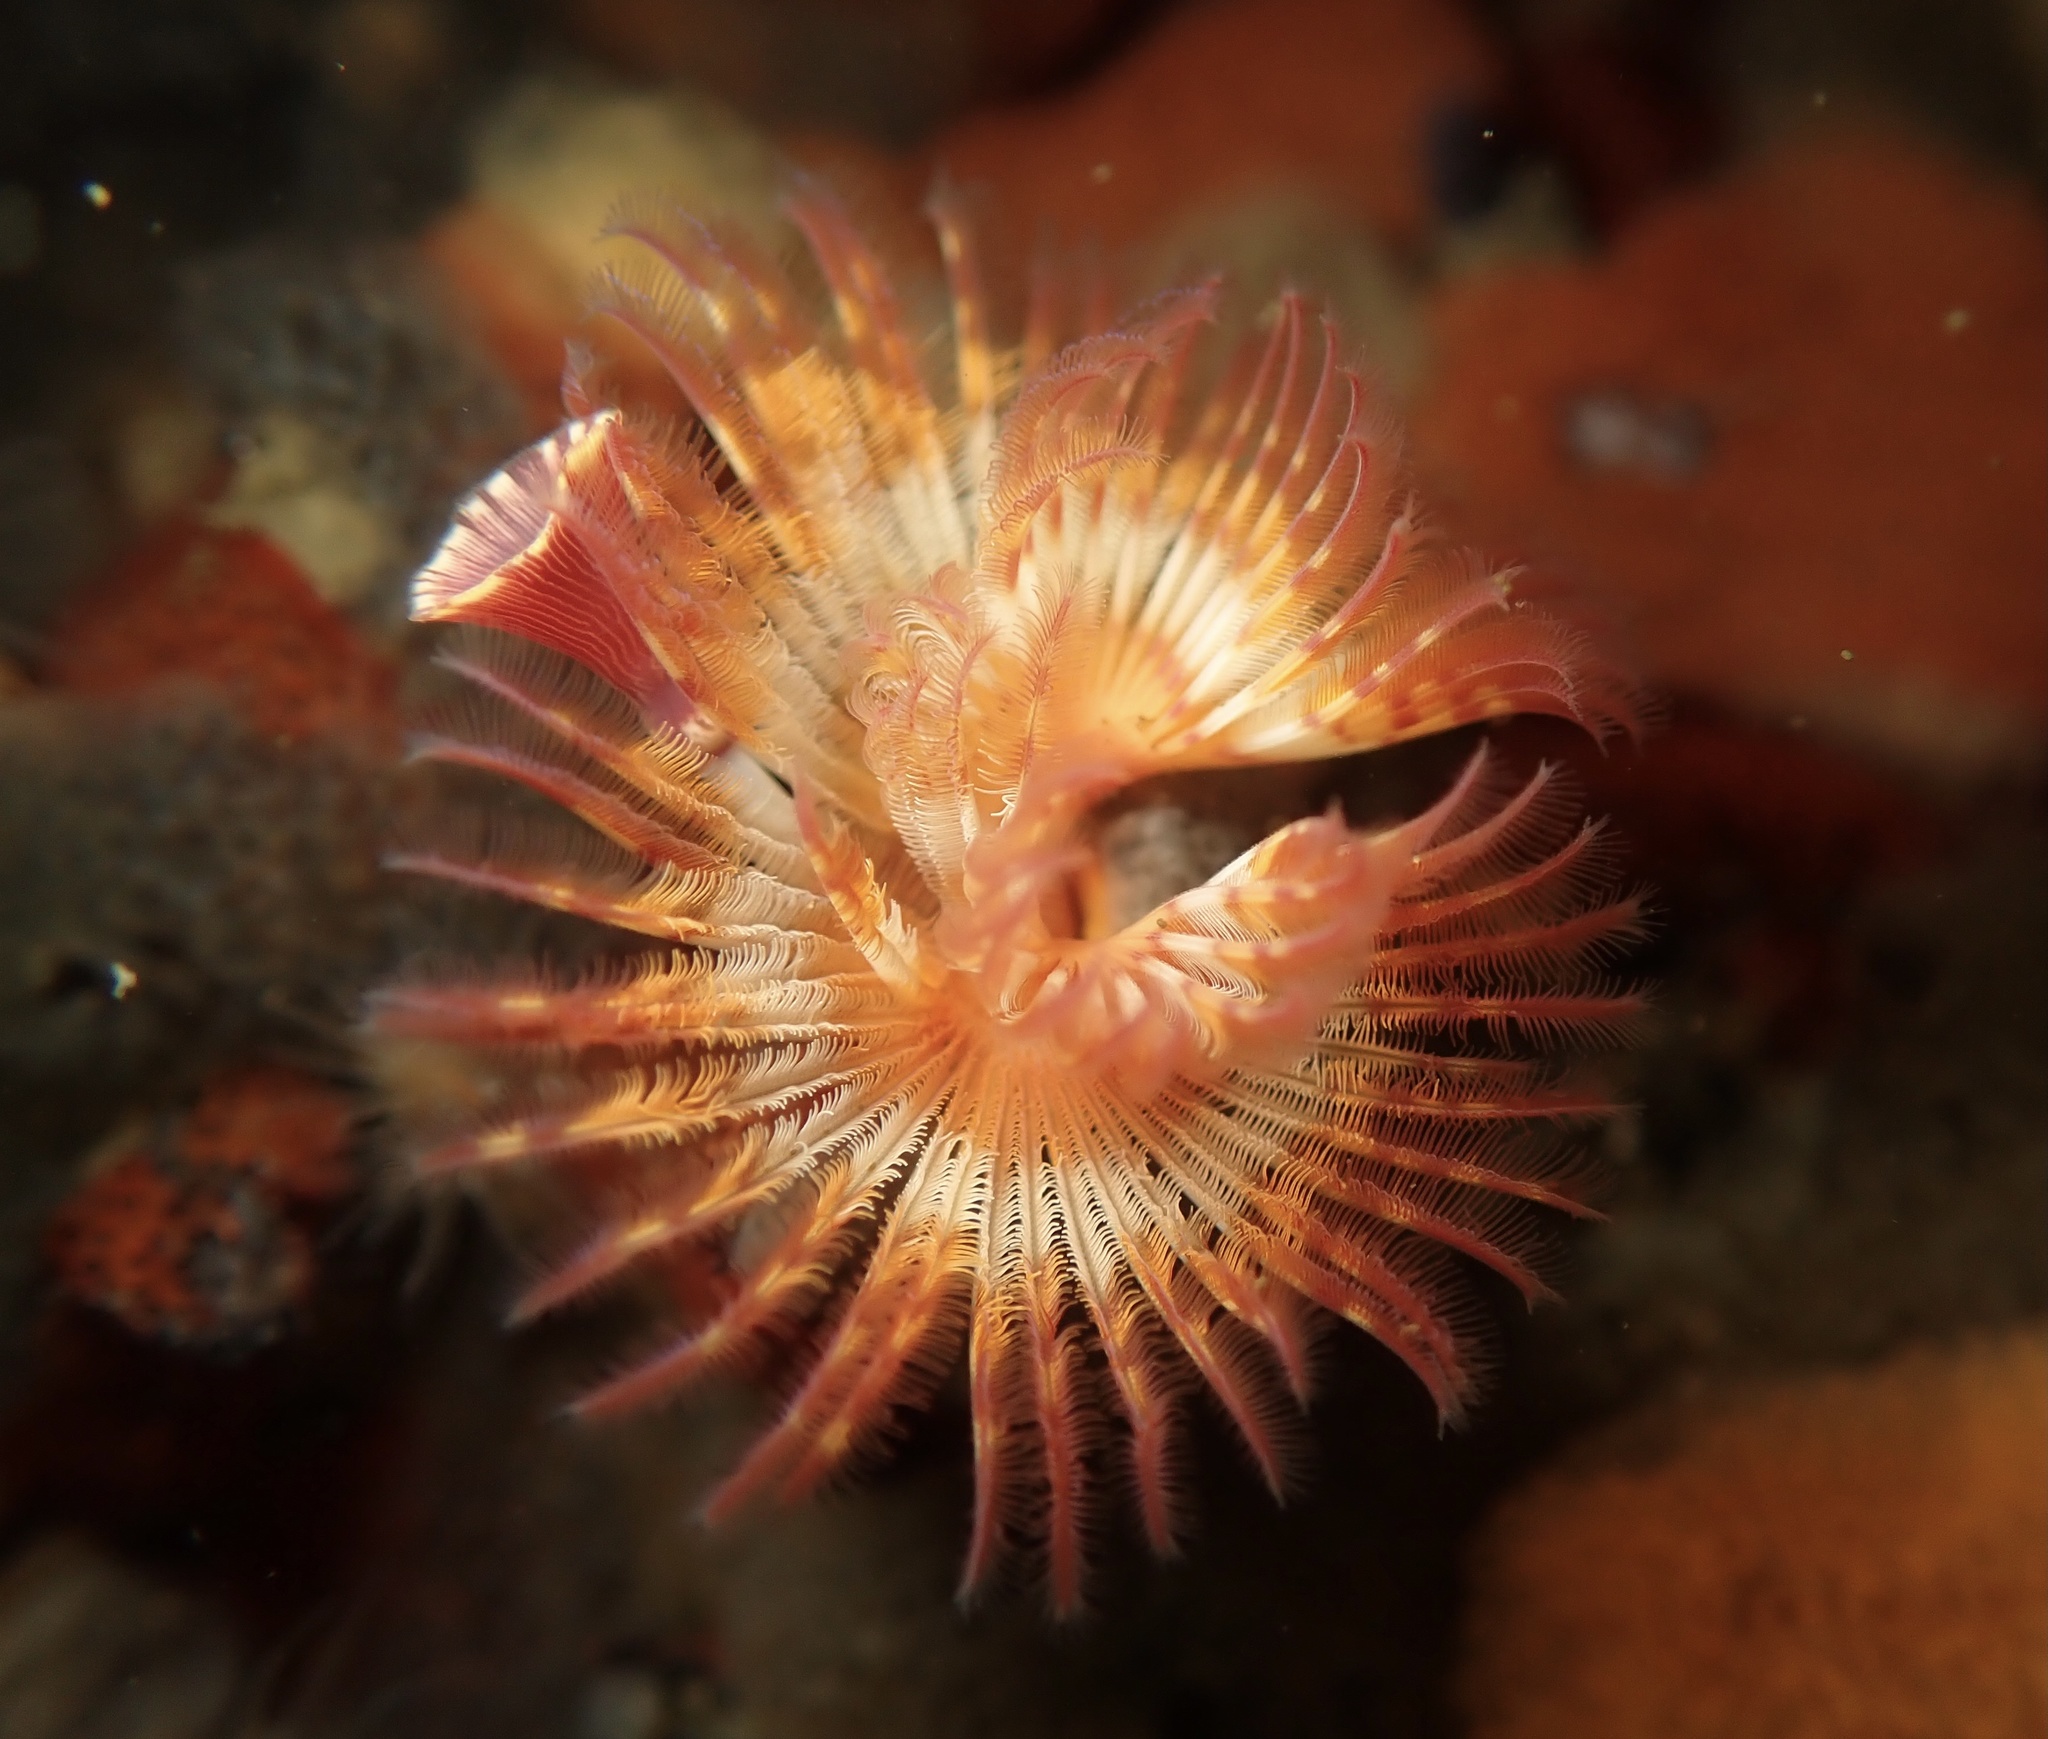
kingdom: Animalia
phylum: Annelida
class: Polychaeta
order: Sabellida
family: Serpulidae
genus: Serpula
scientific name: Serpula columbiana
